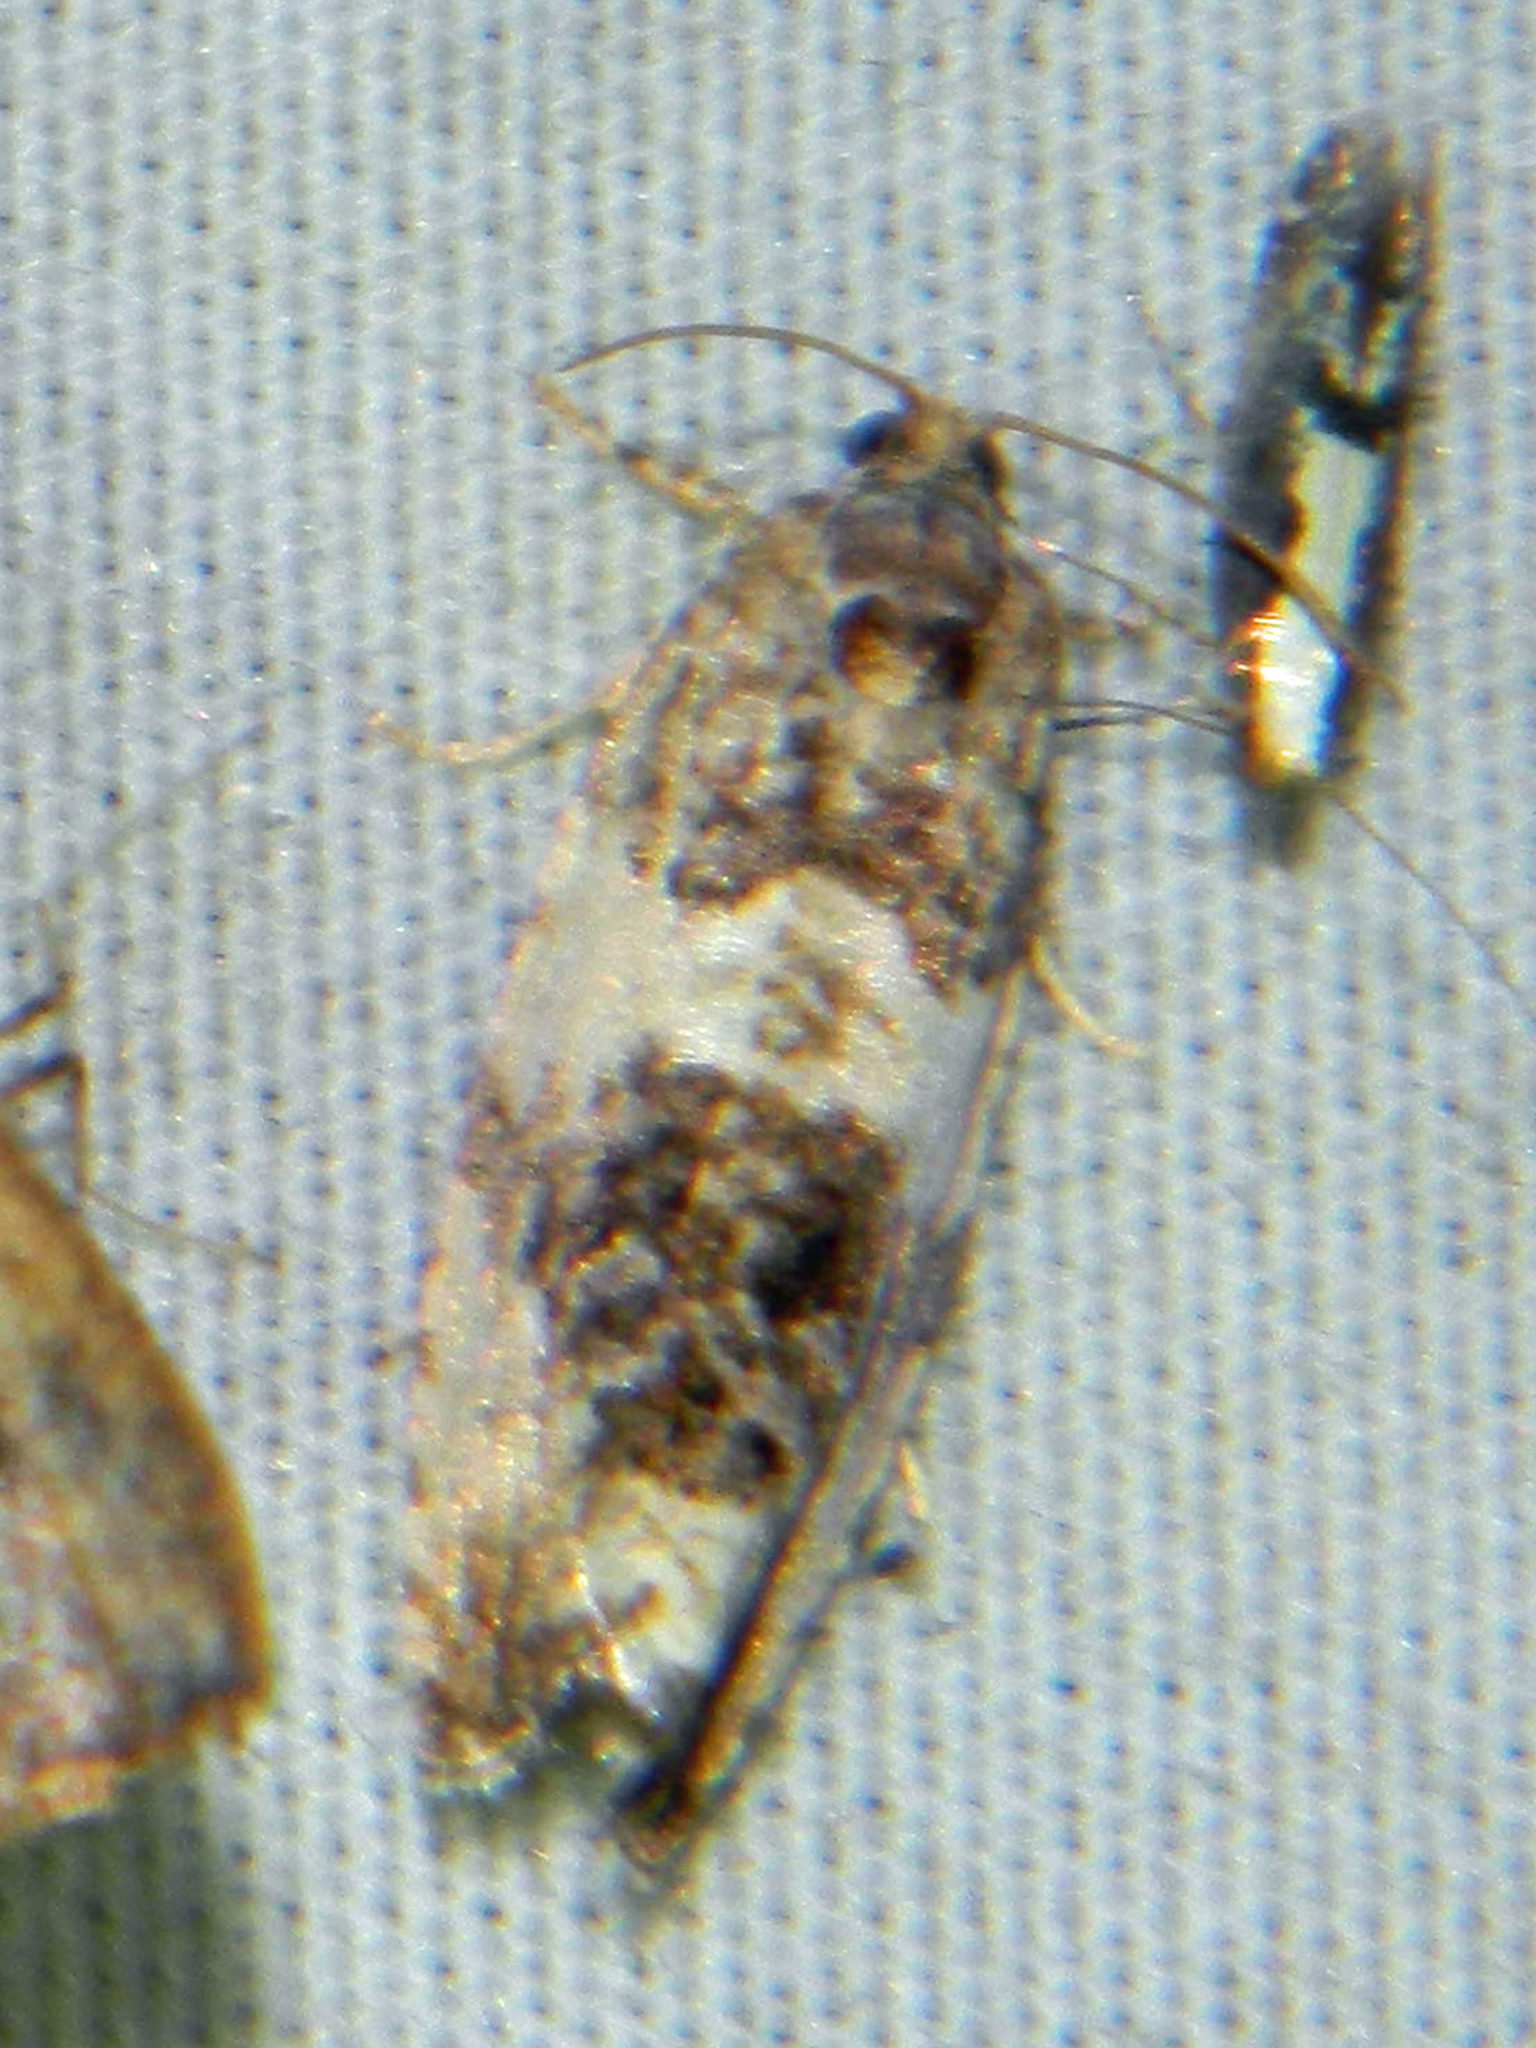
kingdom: Animalia
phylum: Arthropoda
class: Insecta
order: Lepidoptera
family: Argyresthiidae
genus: Argyresthia
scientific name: Argyresthia conjugella
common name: Apple fruit moth
